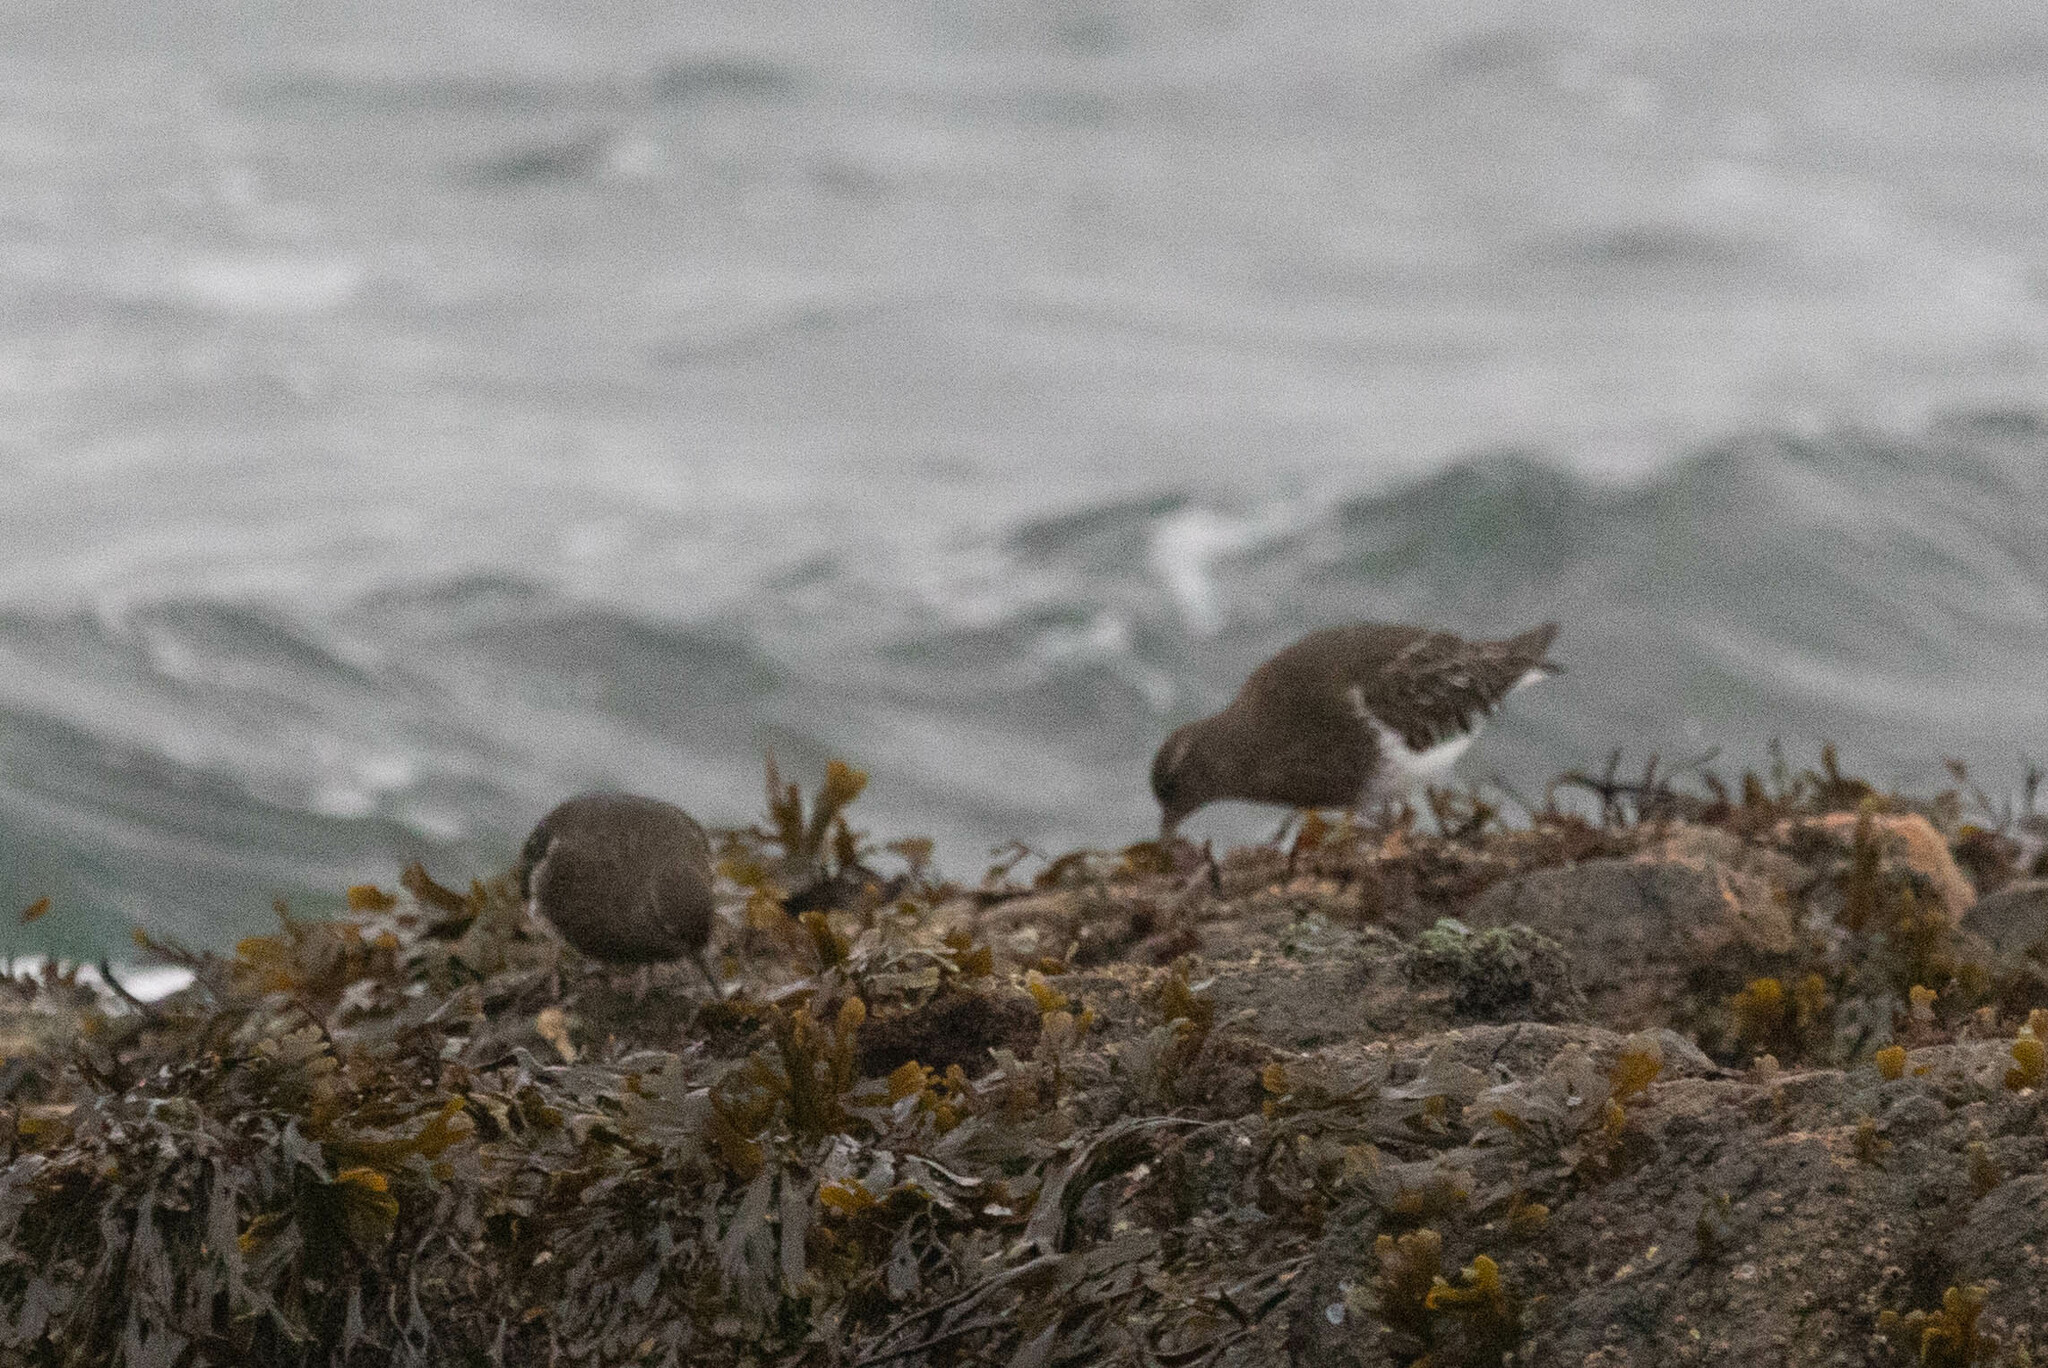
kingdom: Animalia
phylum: Chordata
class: Aves
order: Charadriiformes
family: Scolopacidae
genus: Arenaria
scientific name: Arenaria melanocephala
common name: Black turnstone
